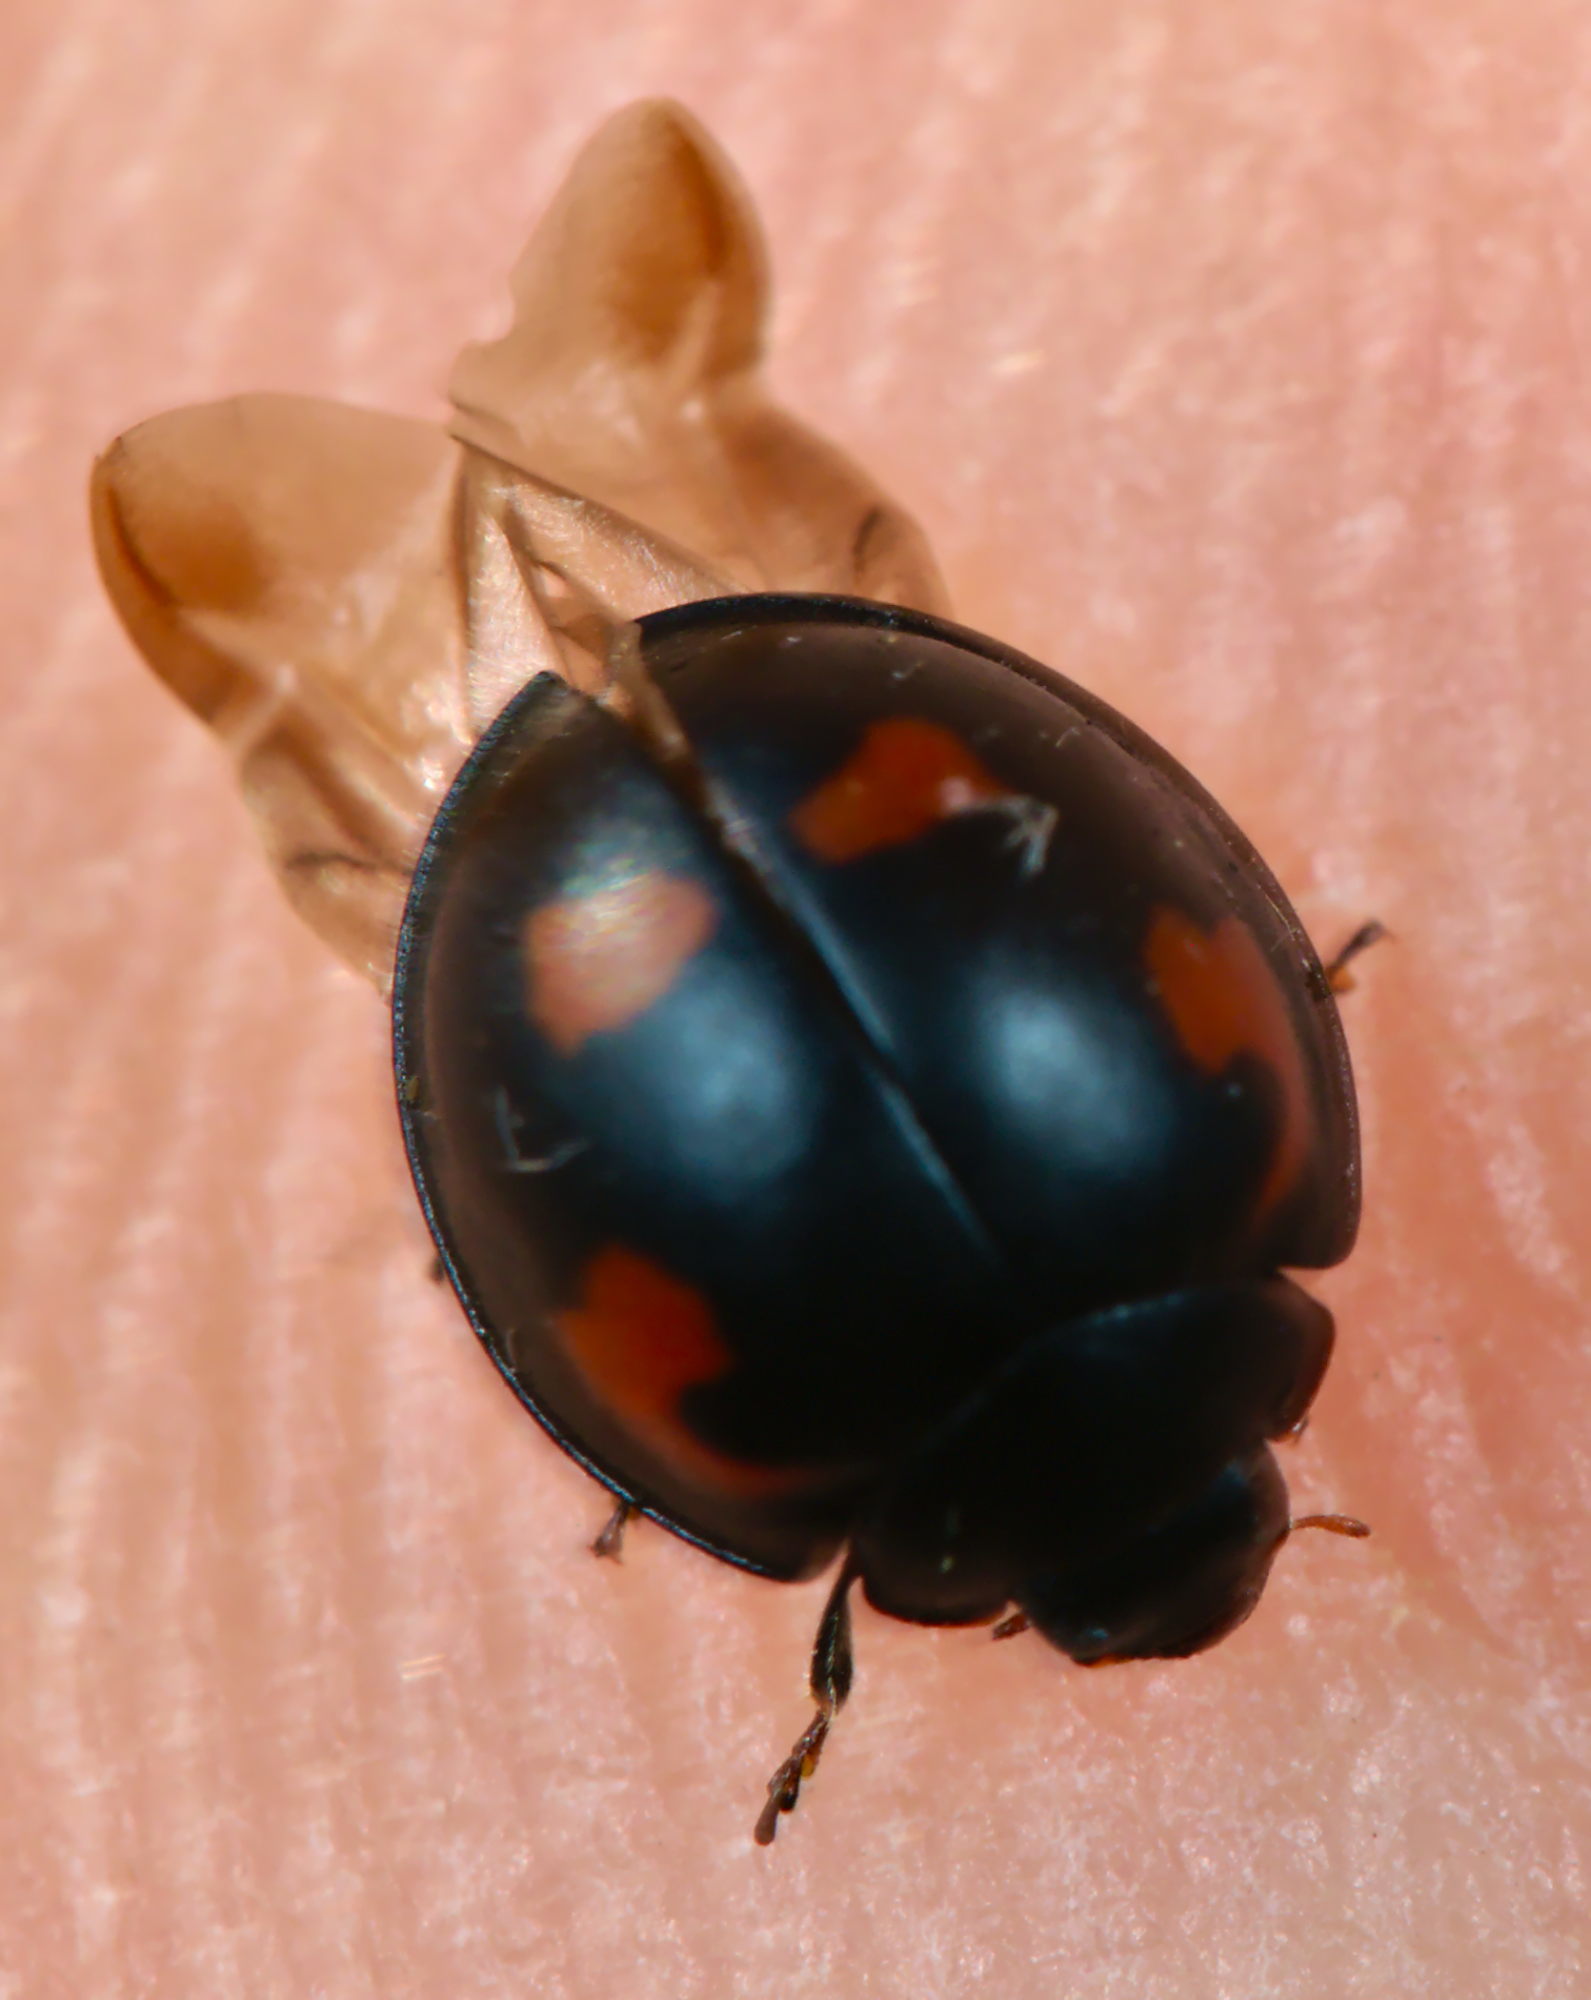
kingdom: Animalia
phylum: Arthropoda
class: Insecta
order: Coleoptera
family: Coccinellidae
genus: Brumus
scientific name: Brumus quadripustulatus
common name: Ladybird beetle
